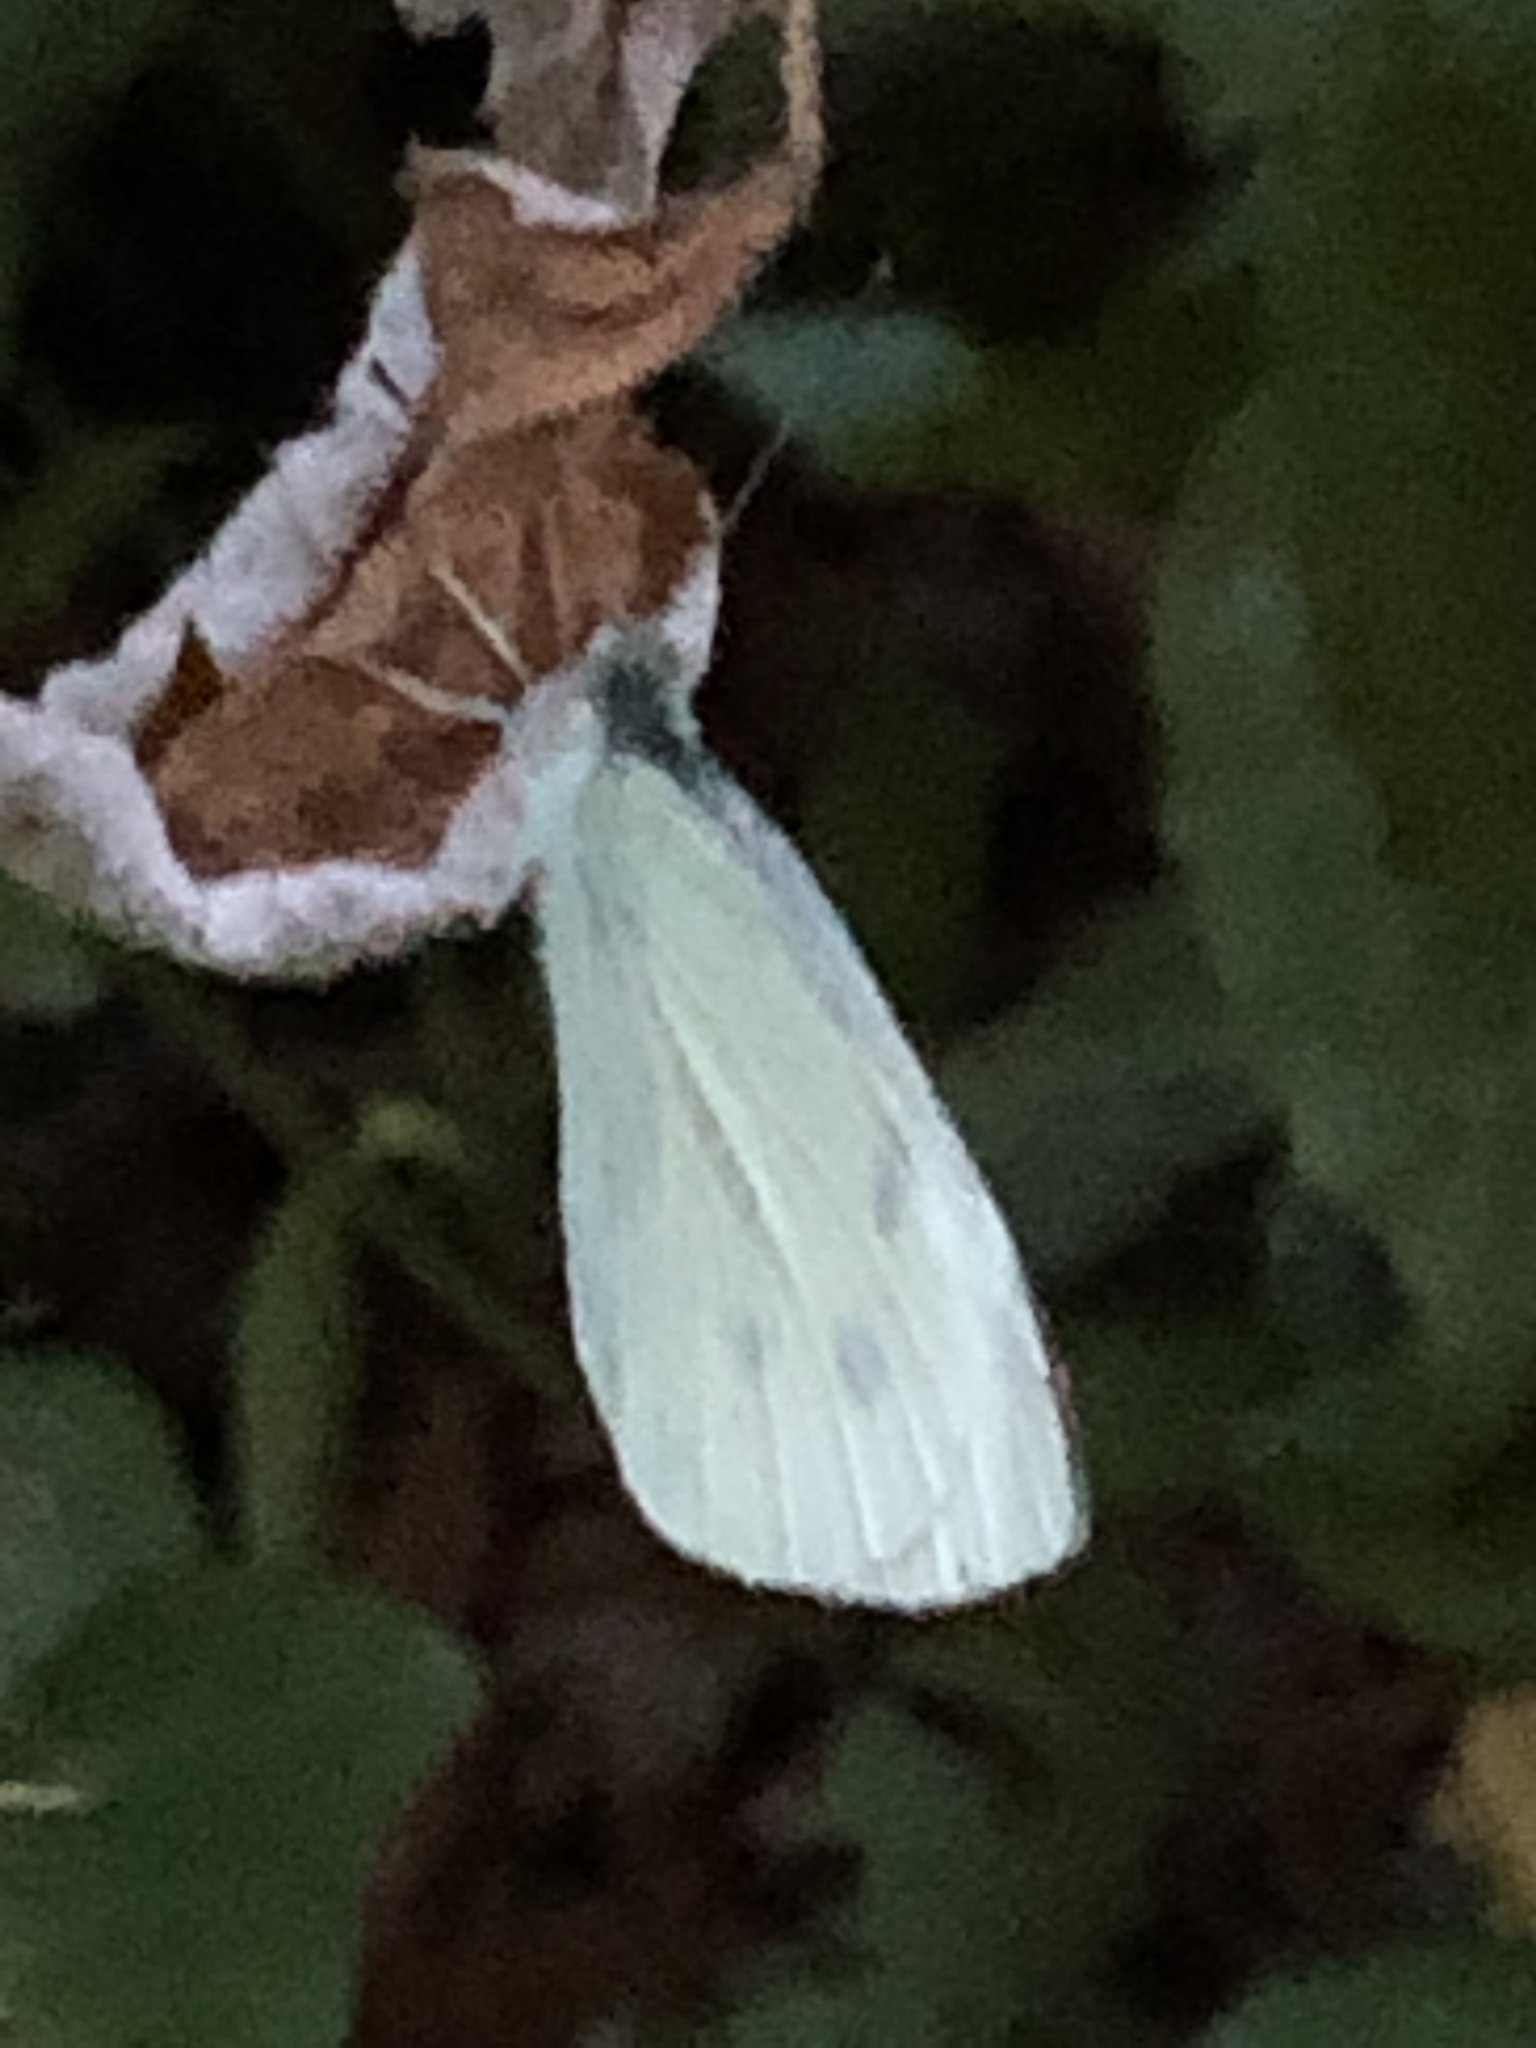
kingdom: Animalia
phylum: Arthropoda
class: Insecta
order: Lepidoptera
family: Pieridae
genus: Pieris
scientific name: Pieris rapae
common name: Small white
